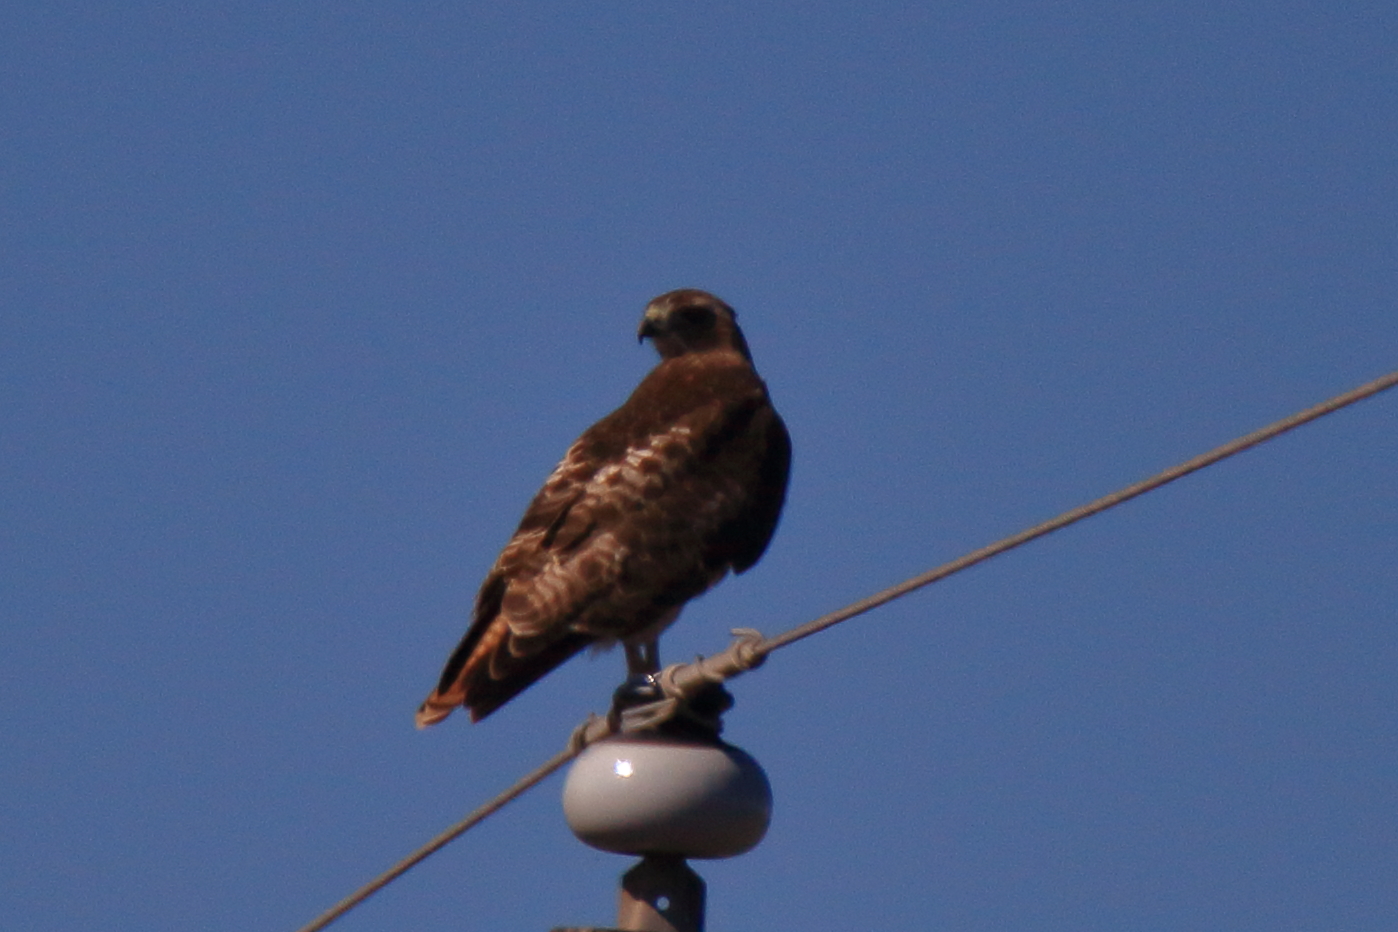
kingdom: Animalia
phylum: Chordata
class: Aves
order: Accipitriformes
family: Accipitridae
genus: Buteo
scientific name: Buteo jamaicensis
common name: Red-tailed hawk
